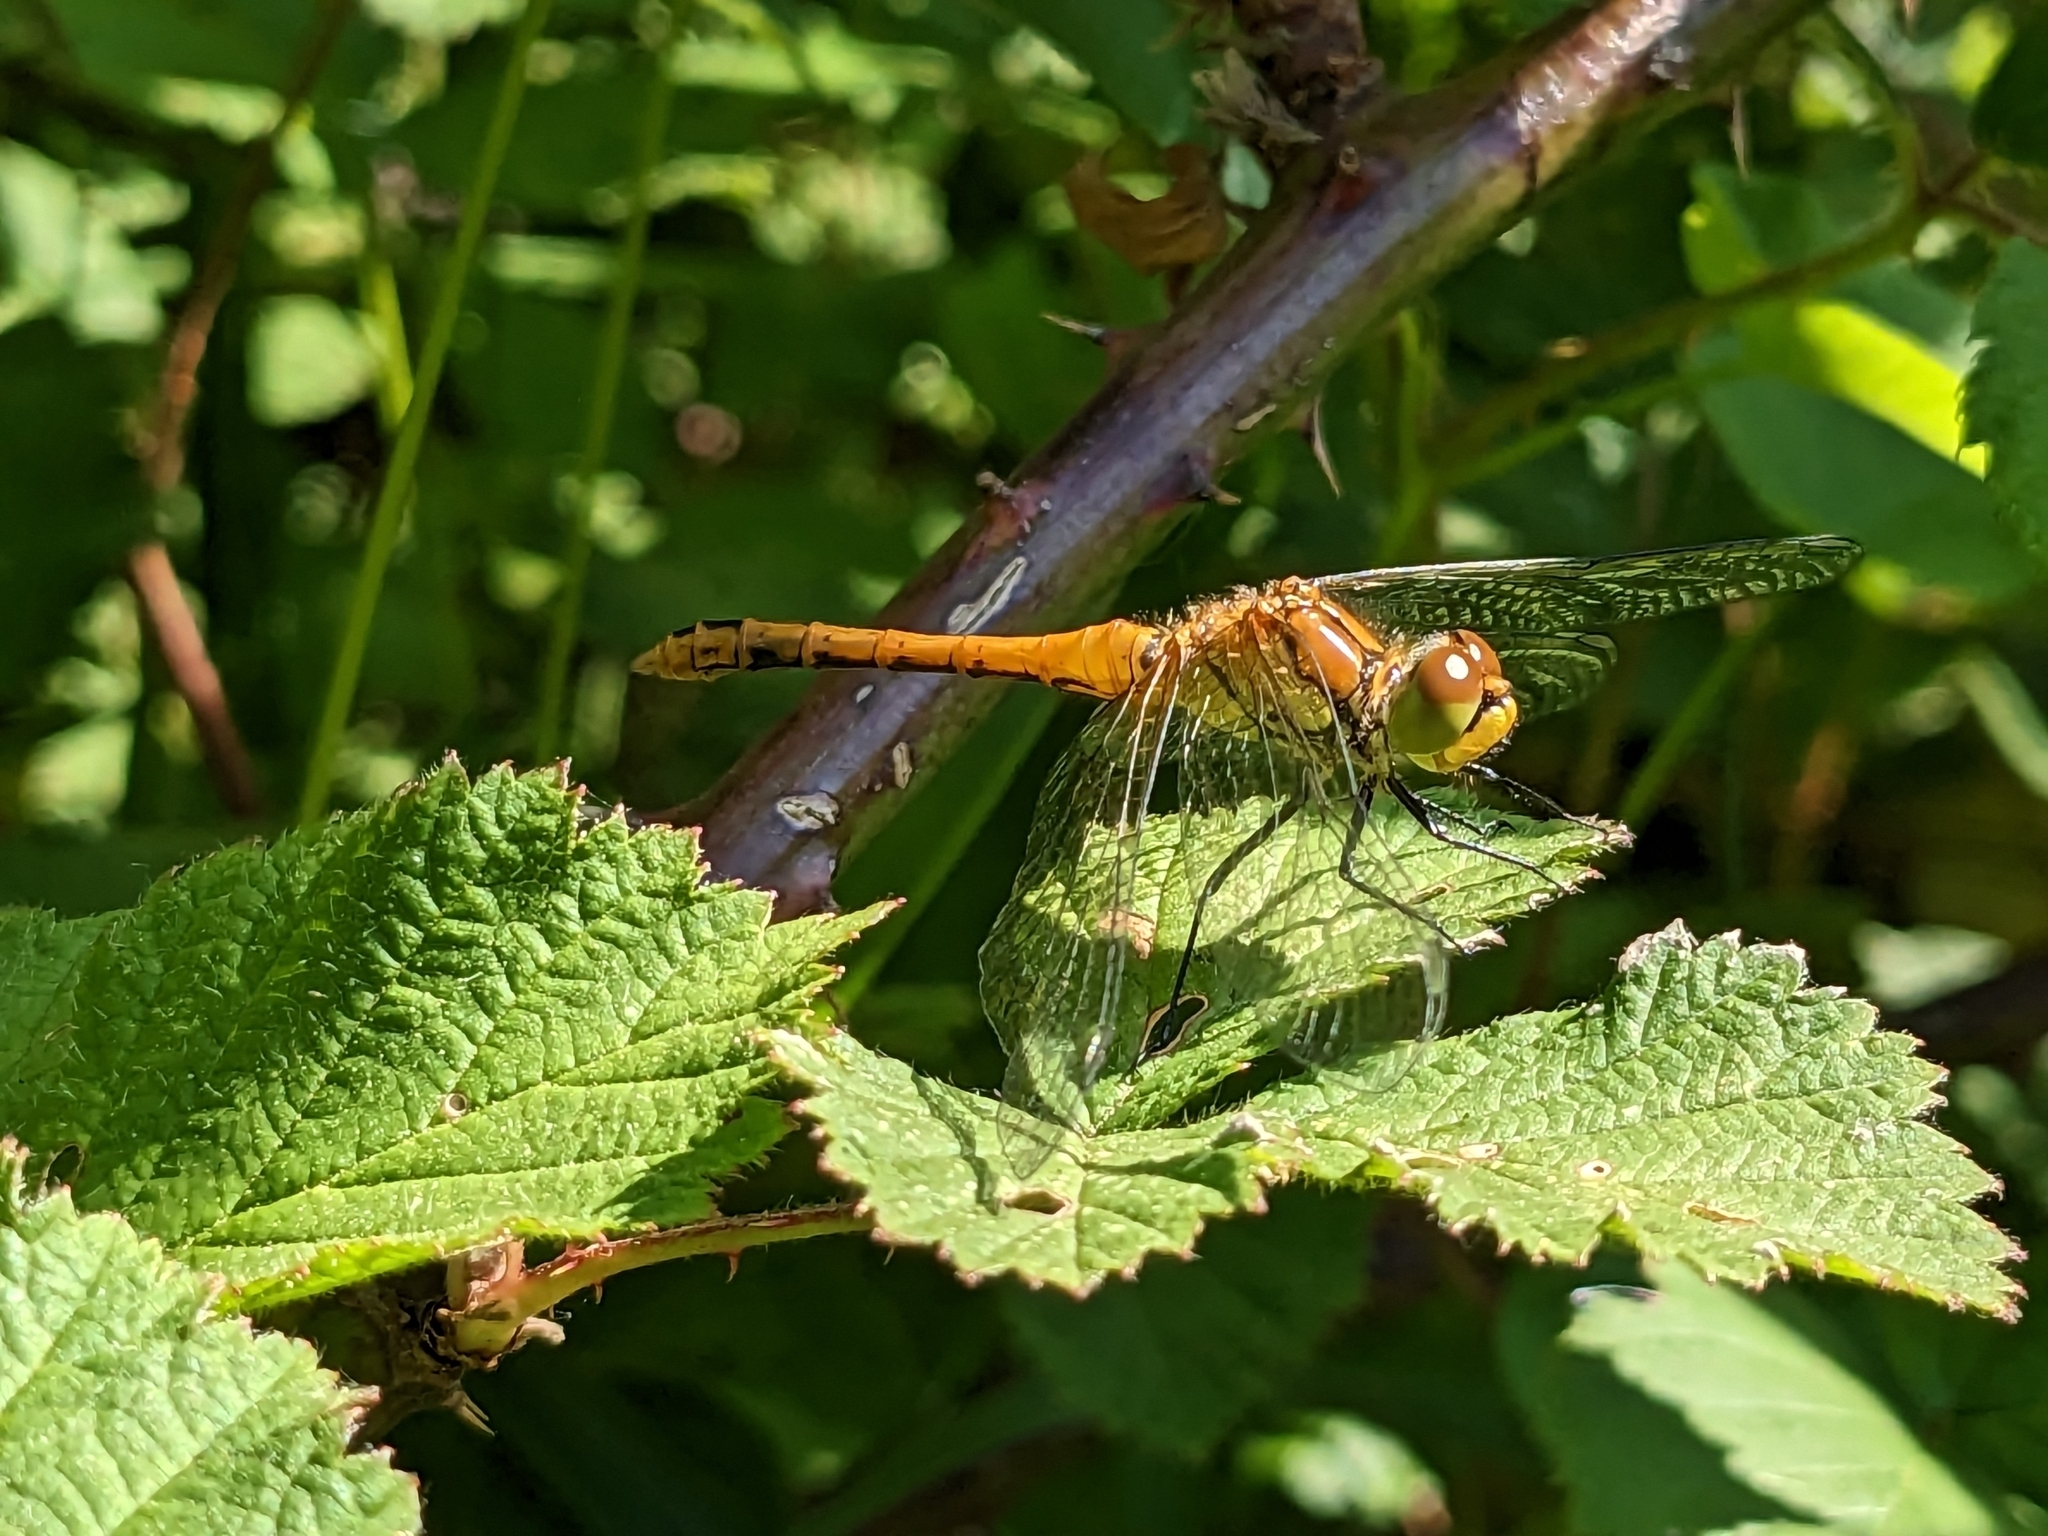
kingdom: Animalia
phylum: Arthropoda
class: Insecta
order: Odonata
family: Libellulidae
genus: Sympetrum
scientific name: Sympetrum sanguineum
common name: Ruddy darter
